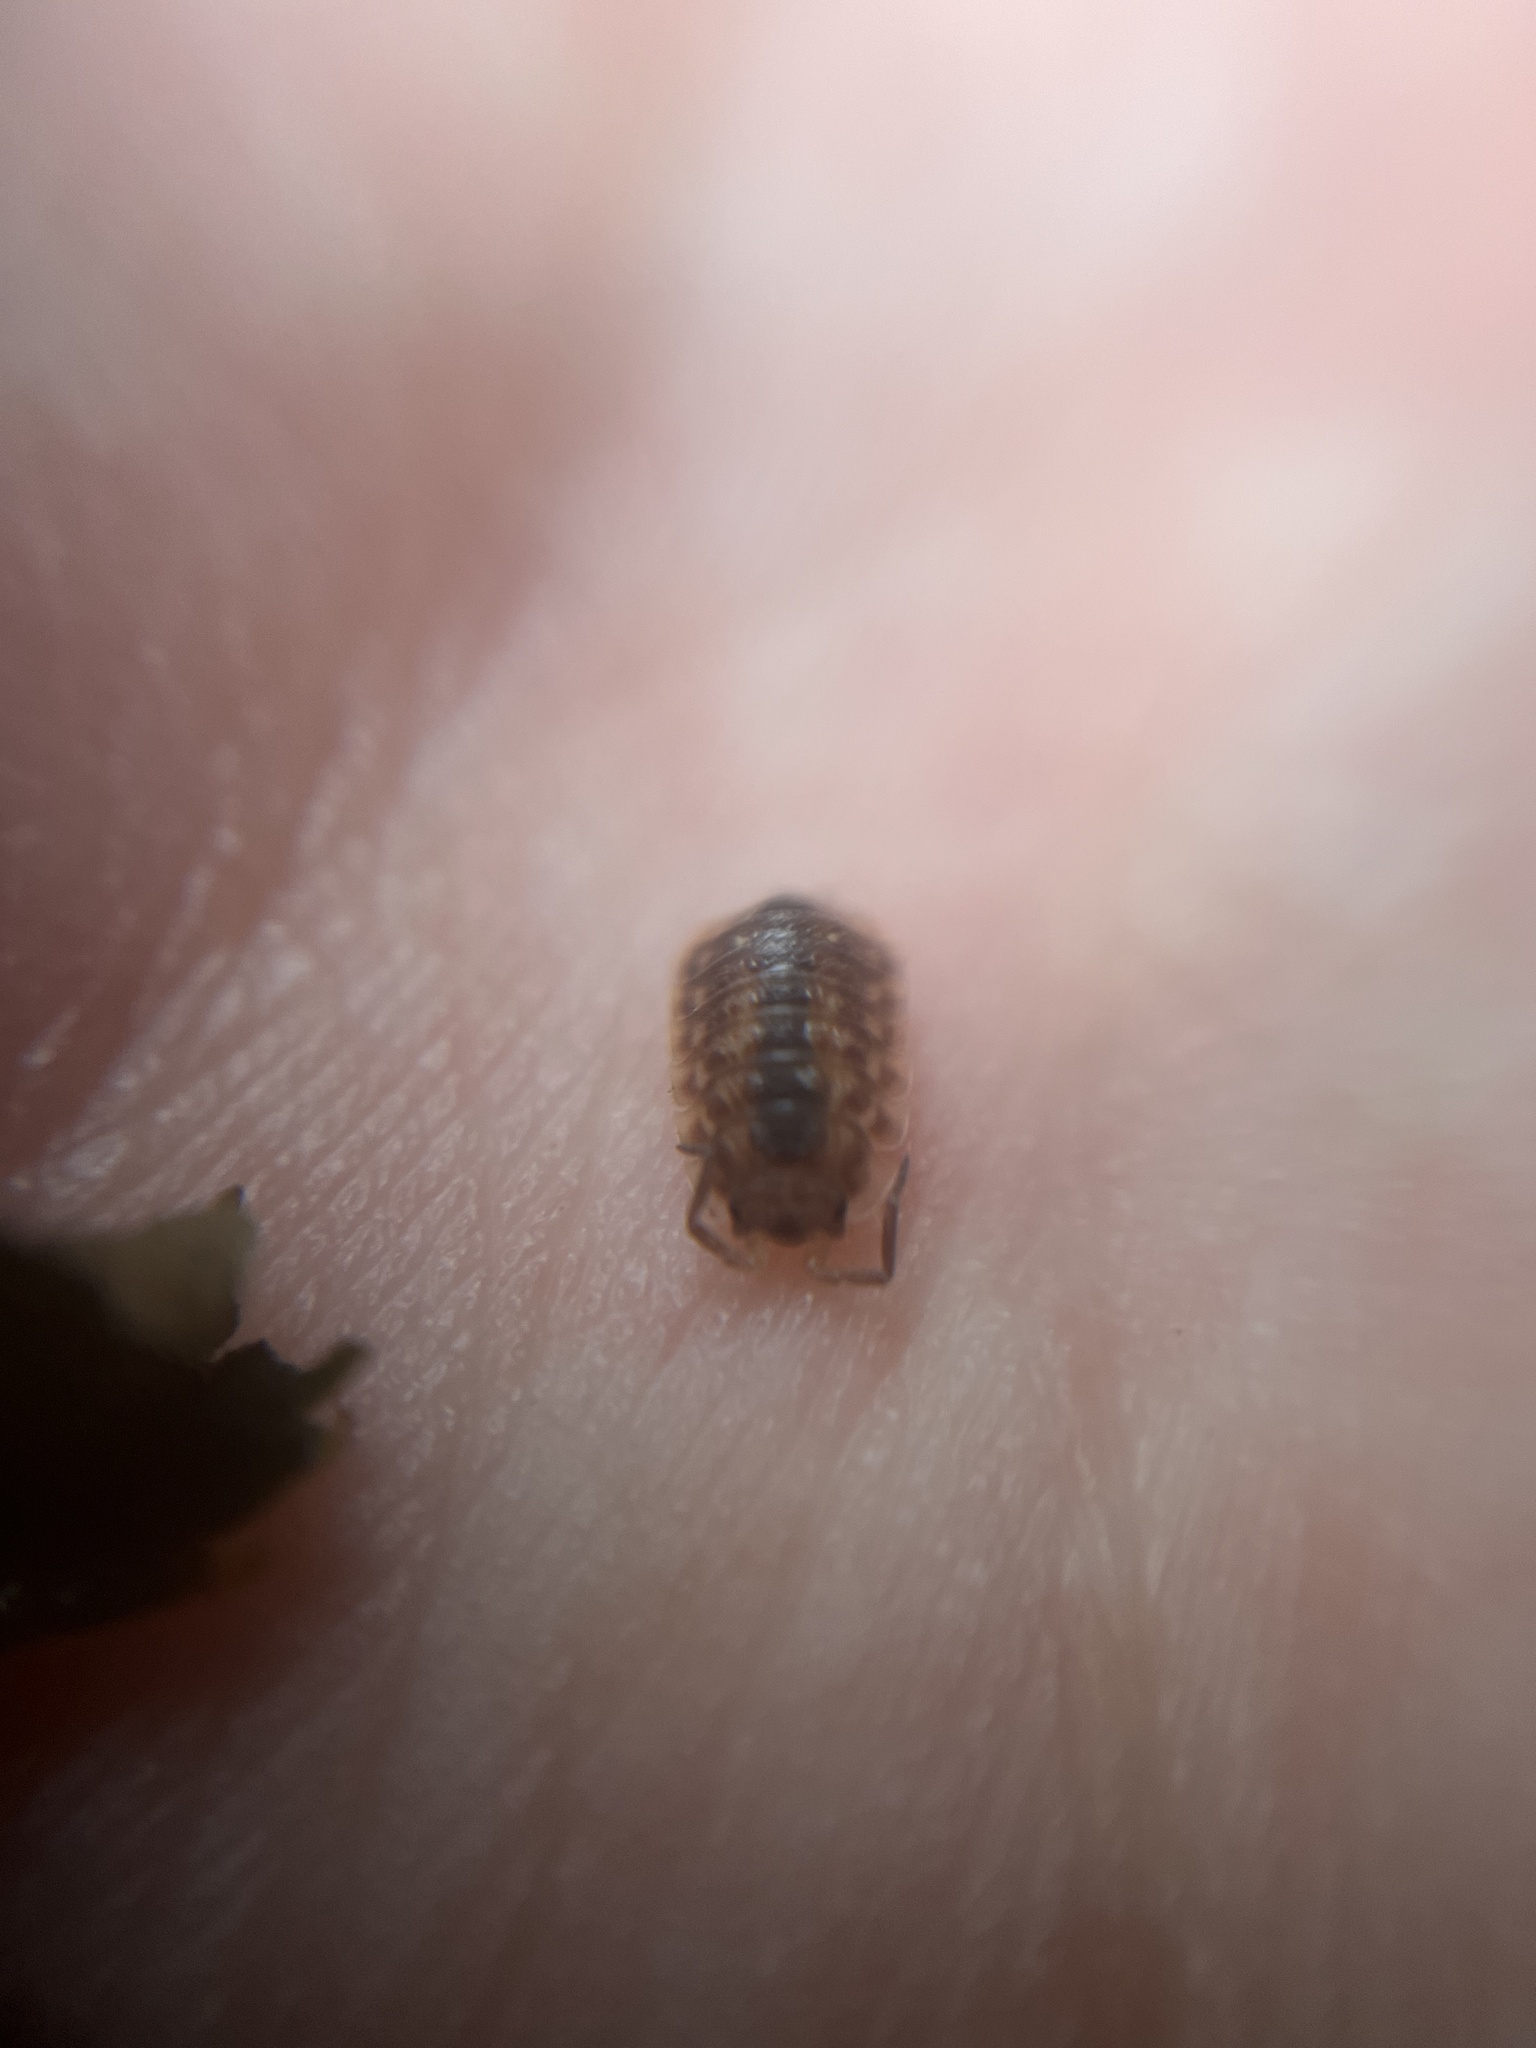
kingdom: Animalia
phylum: Arthropoda
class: Malacostraca
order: Isopoda
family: Oniscidae
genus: Oniscus
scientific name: Oniscus asellus
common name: Common shiny woodlouse
